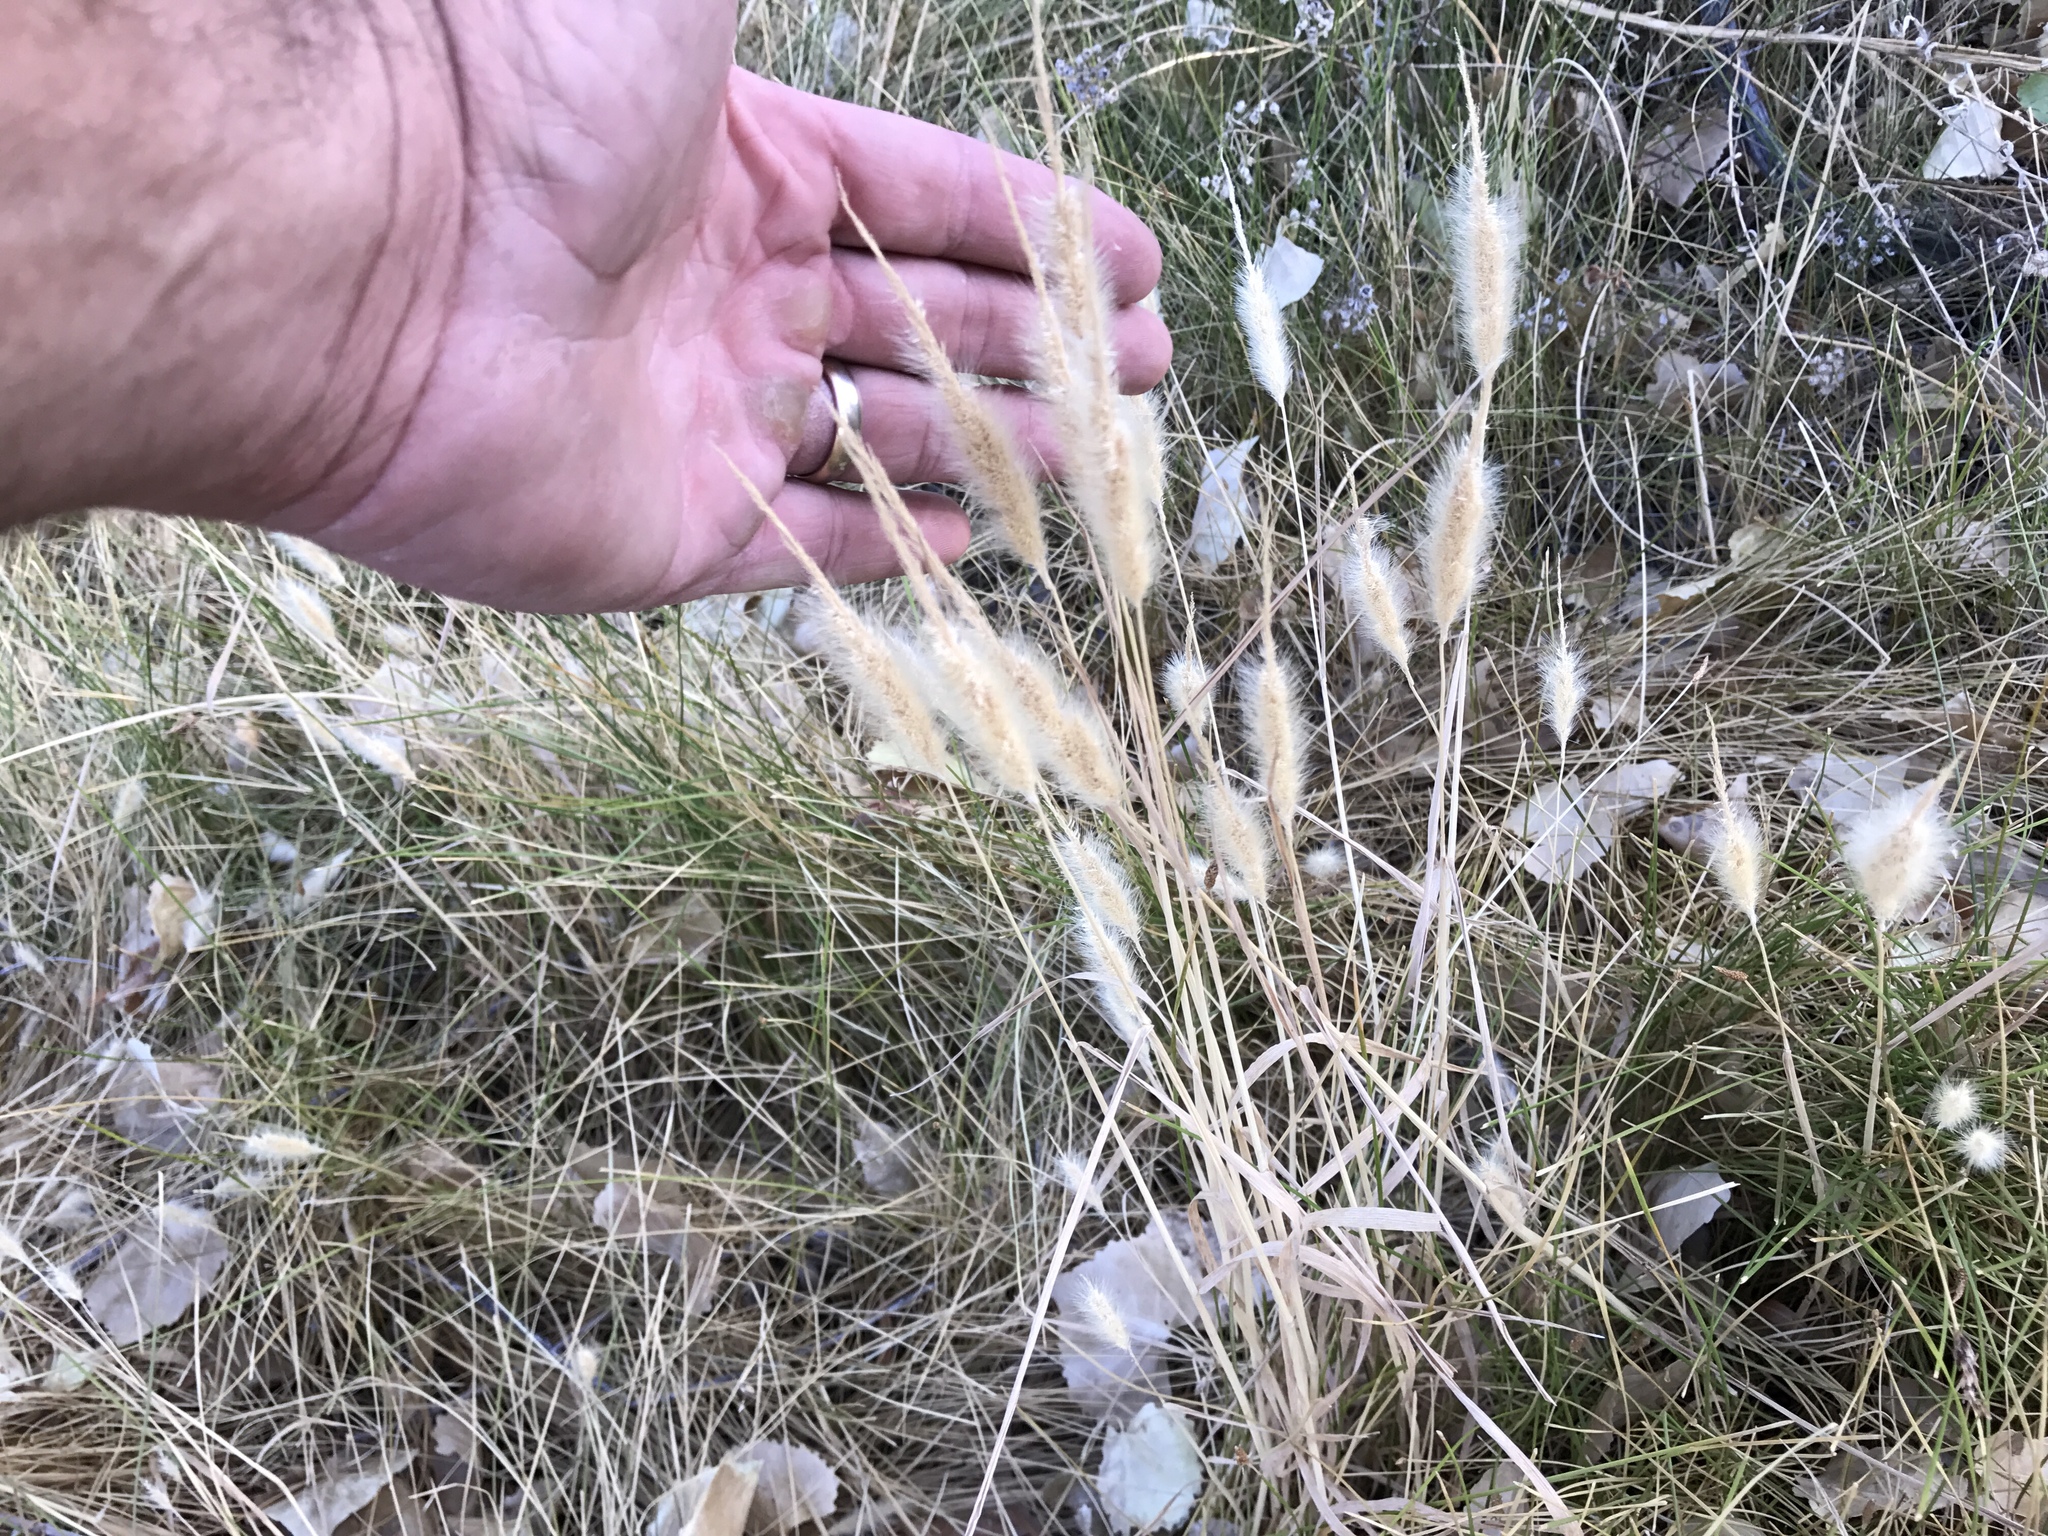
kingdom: Plantae
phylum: Tracheophyta
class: Liliopsida
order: Poales
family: Poaceae
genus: Polypogon
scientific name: Polypogon monspeliensis
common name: Annual rabbitsfoot grass
